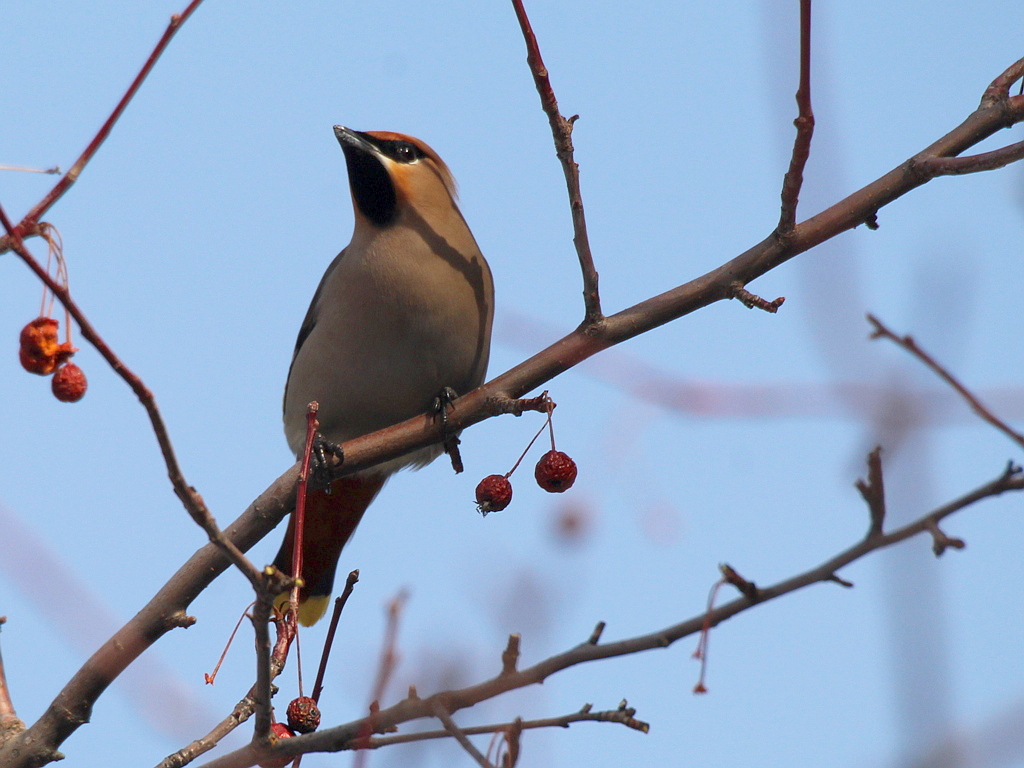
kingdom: Animalia
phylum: Chordata
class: Aves
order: Passeriformes
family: Bombycillidae
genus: Bombycilla
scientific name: Bombycilla garrulus
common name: Bohemian waxwing
